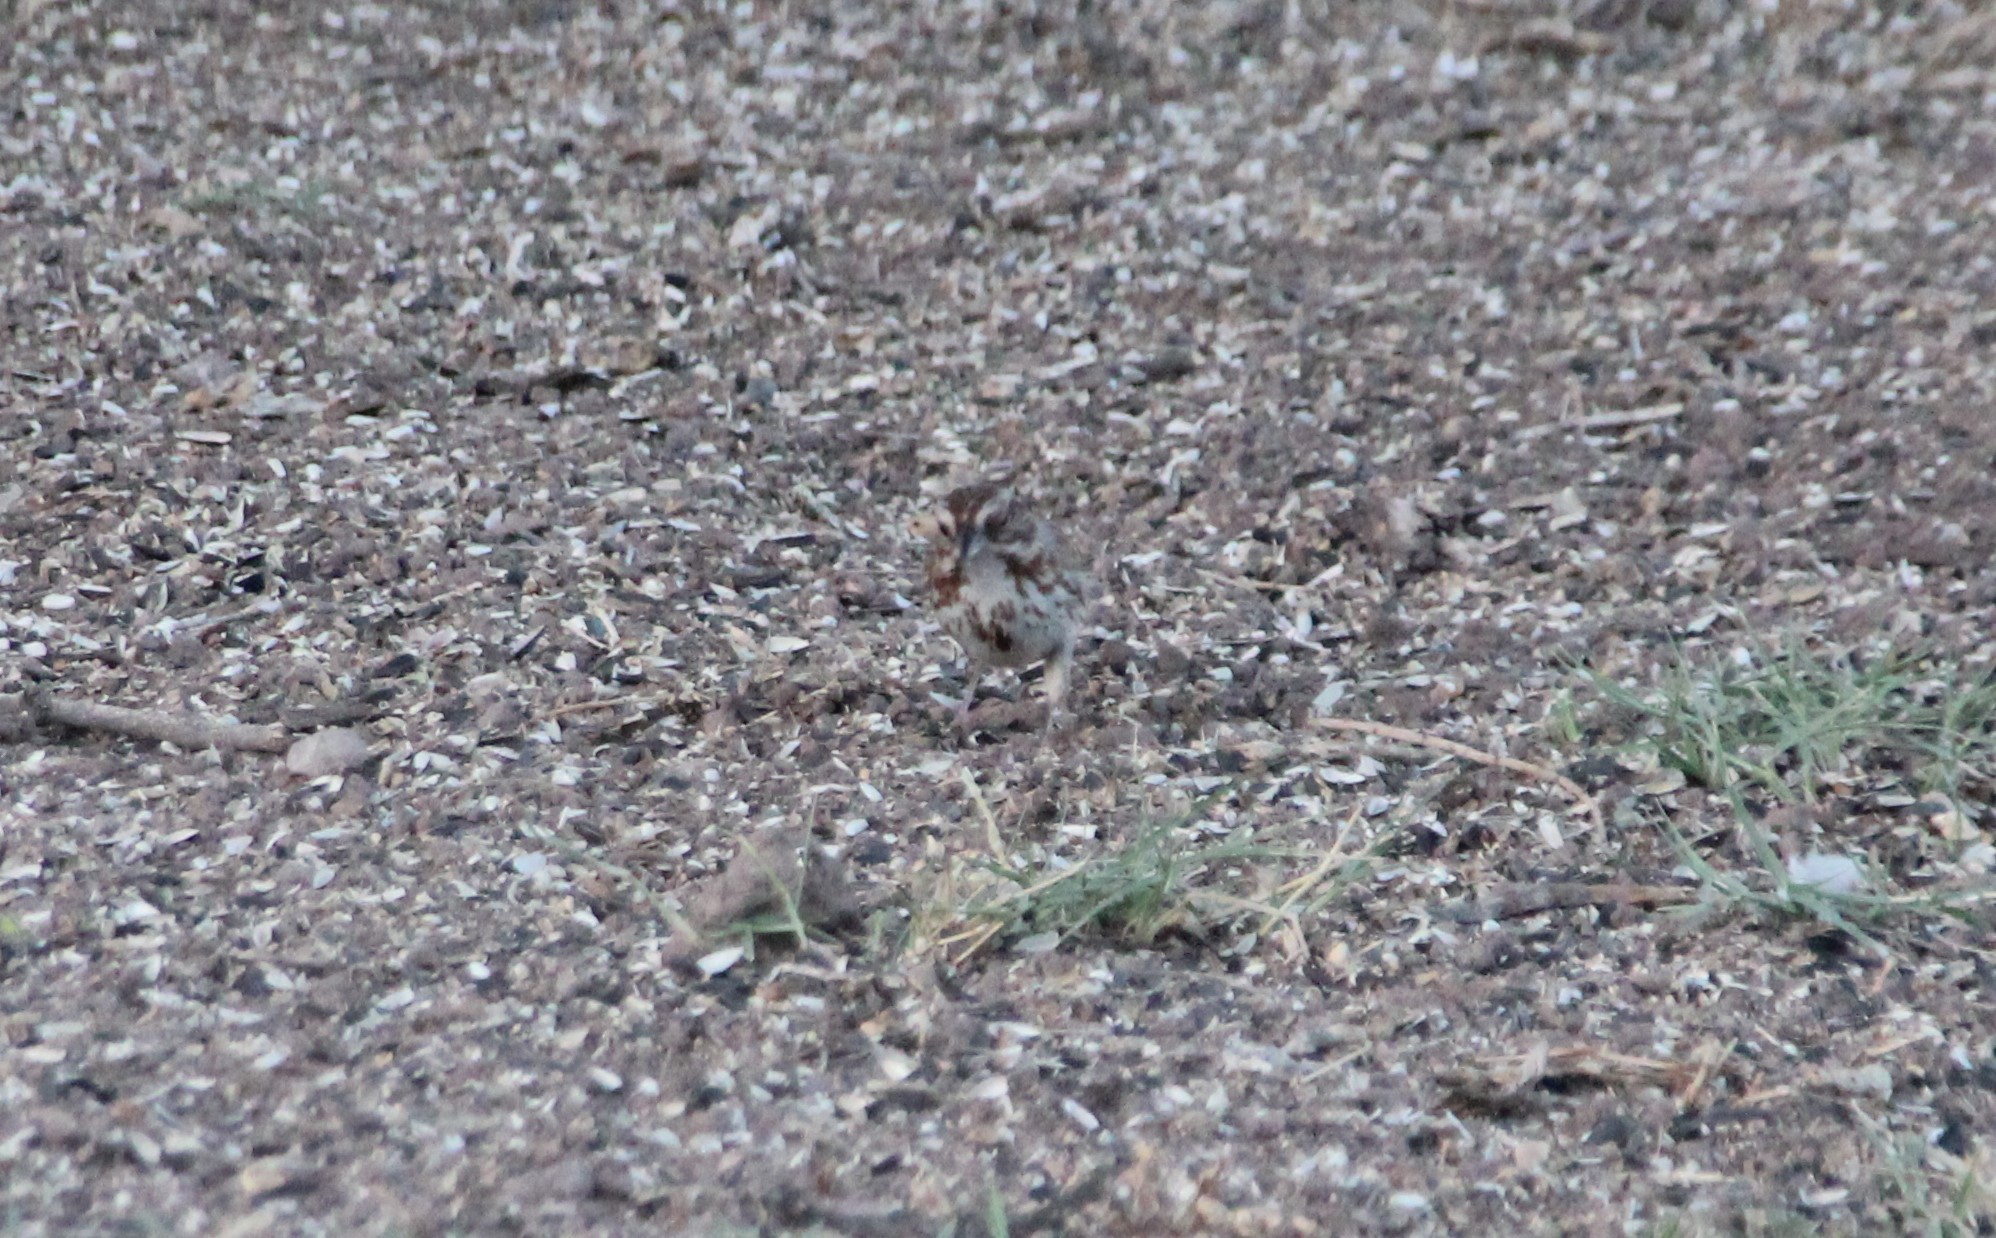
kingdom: Animalia
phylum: Chordata
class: Aves
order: Passeriformes
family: Passerellidae
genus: Melospiza
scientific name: Melospiza melodia
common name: Song sparrow
